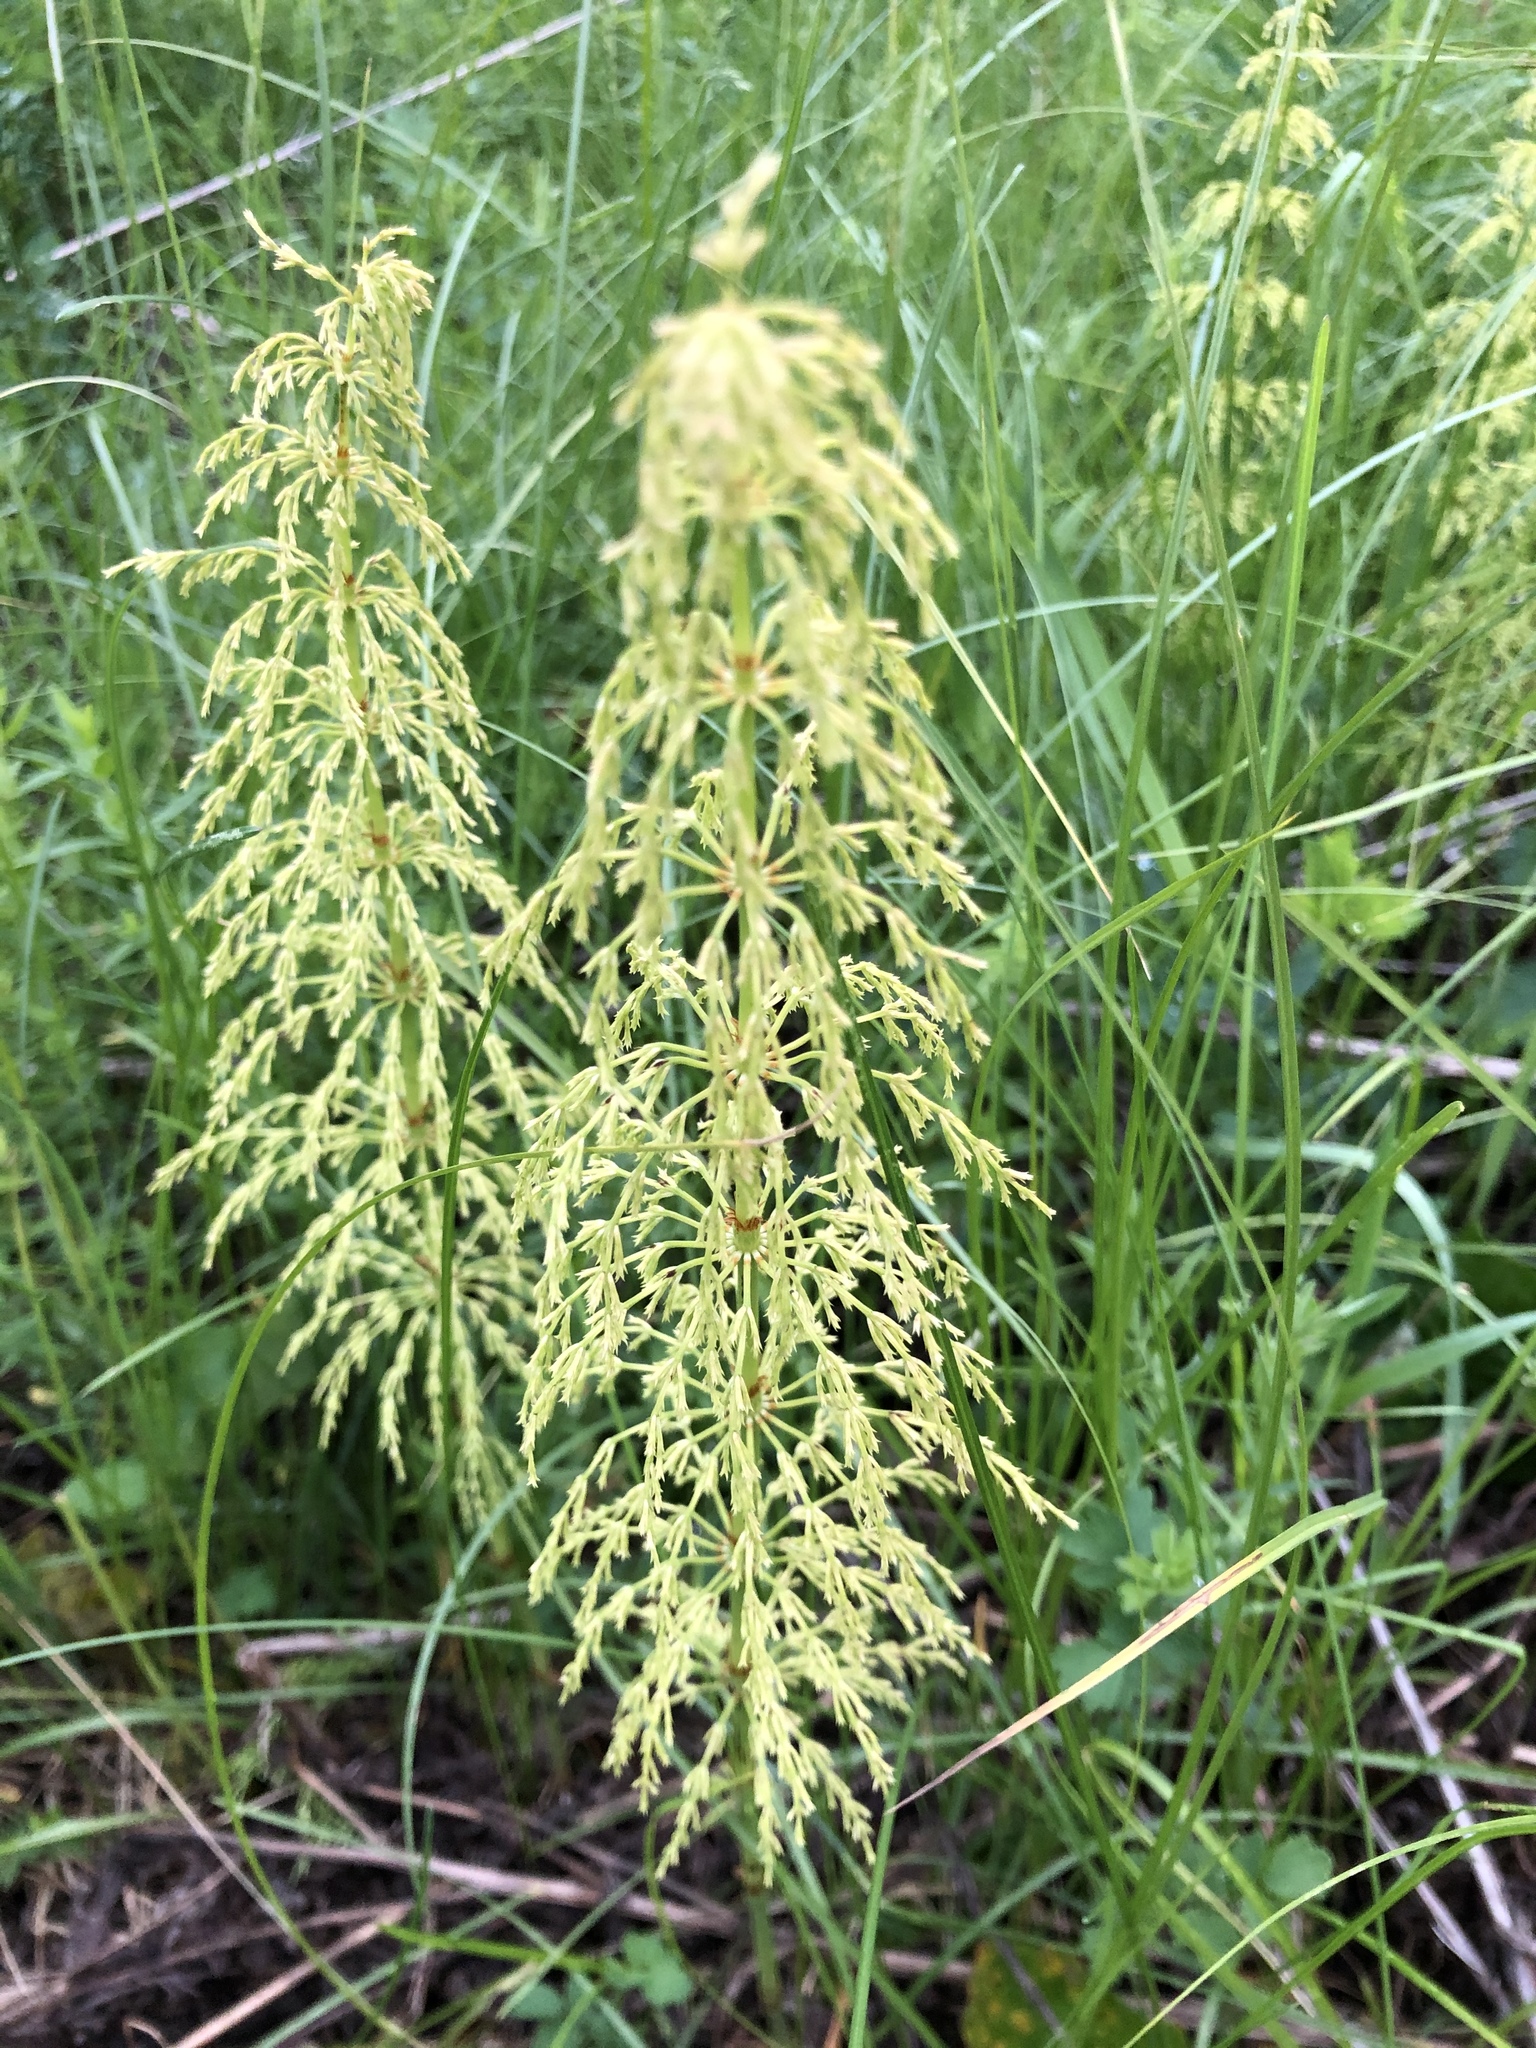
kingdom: Plantae
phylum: Tracheophyta
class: Polypodiopsida
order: Equisetales
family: Equisetaceae
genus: Equisetum
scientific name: Equisetum sylvaticum
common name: Wood horsetail
